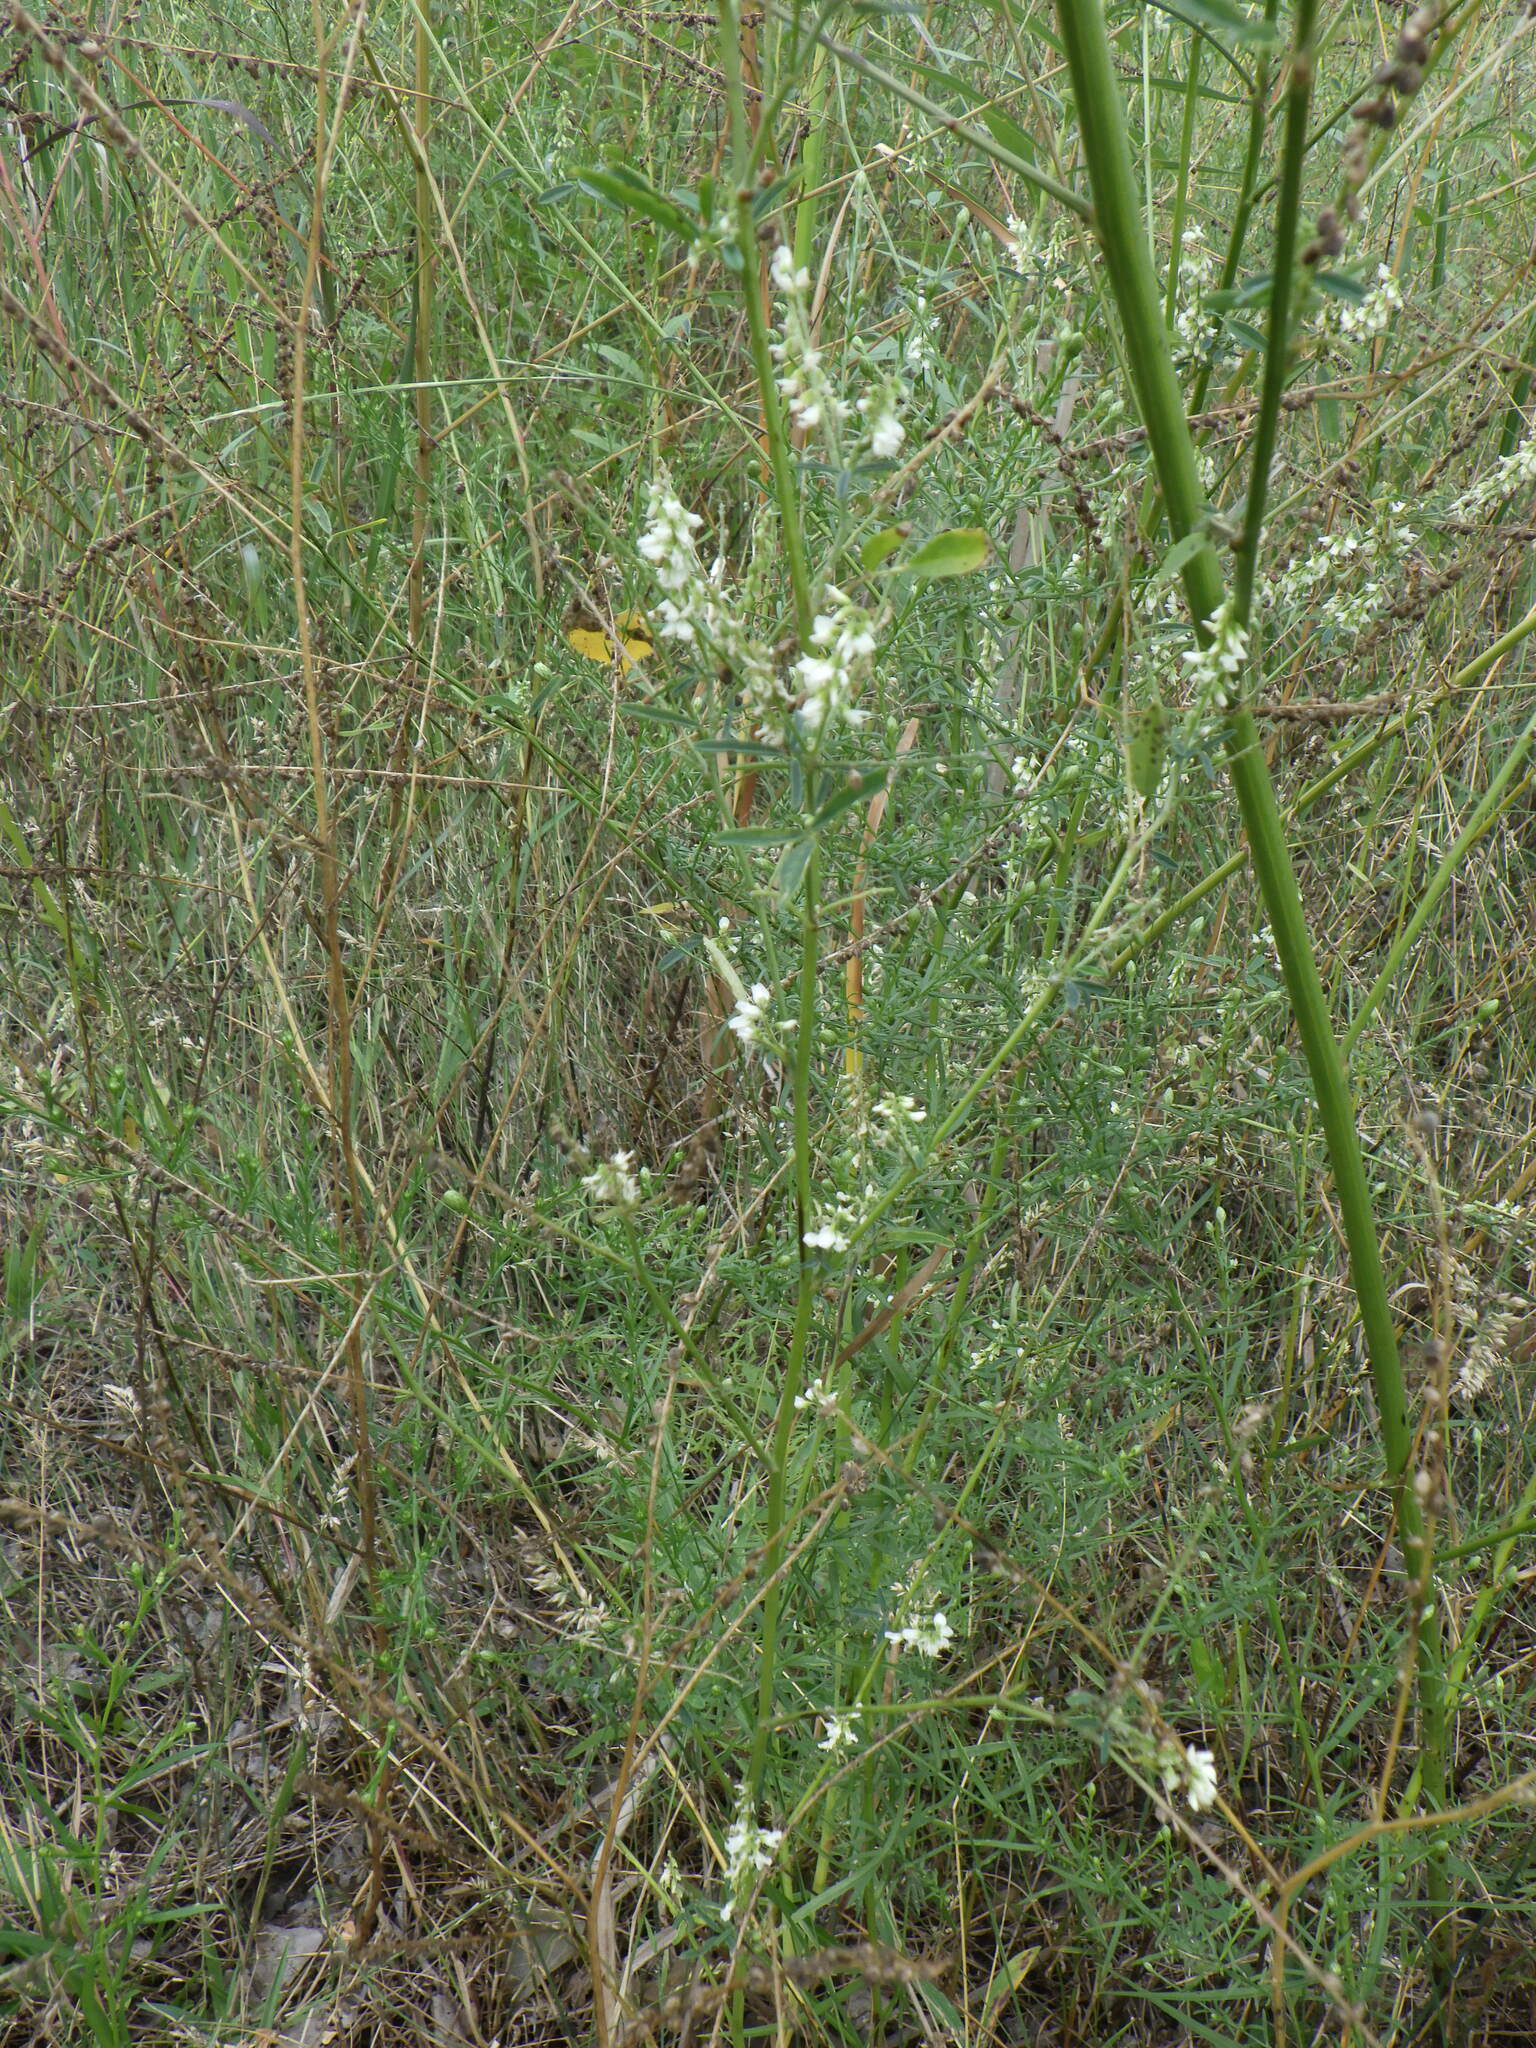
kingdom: Plantae
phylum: Tracheophyta
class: Magnoliopsida
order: Fabales
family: Fabaceae
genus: Melilotus
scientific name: Melilotus albus
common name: White melilot
